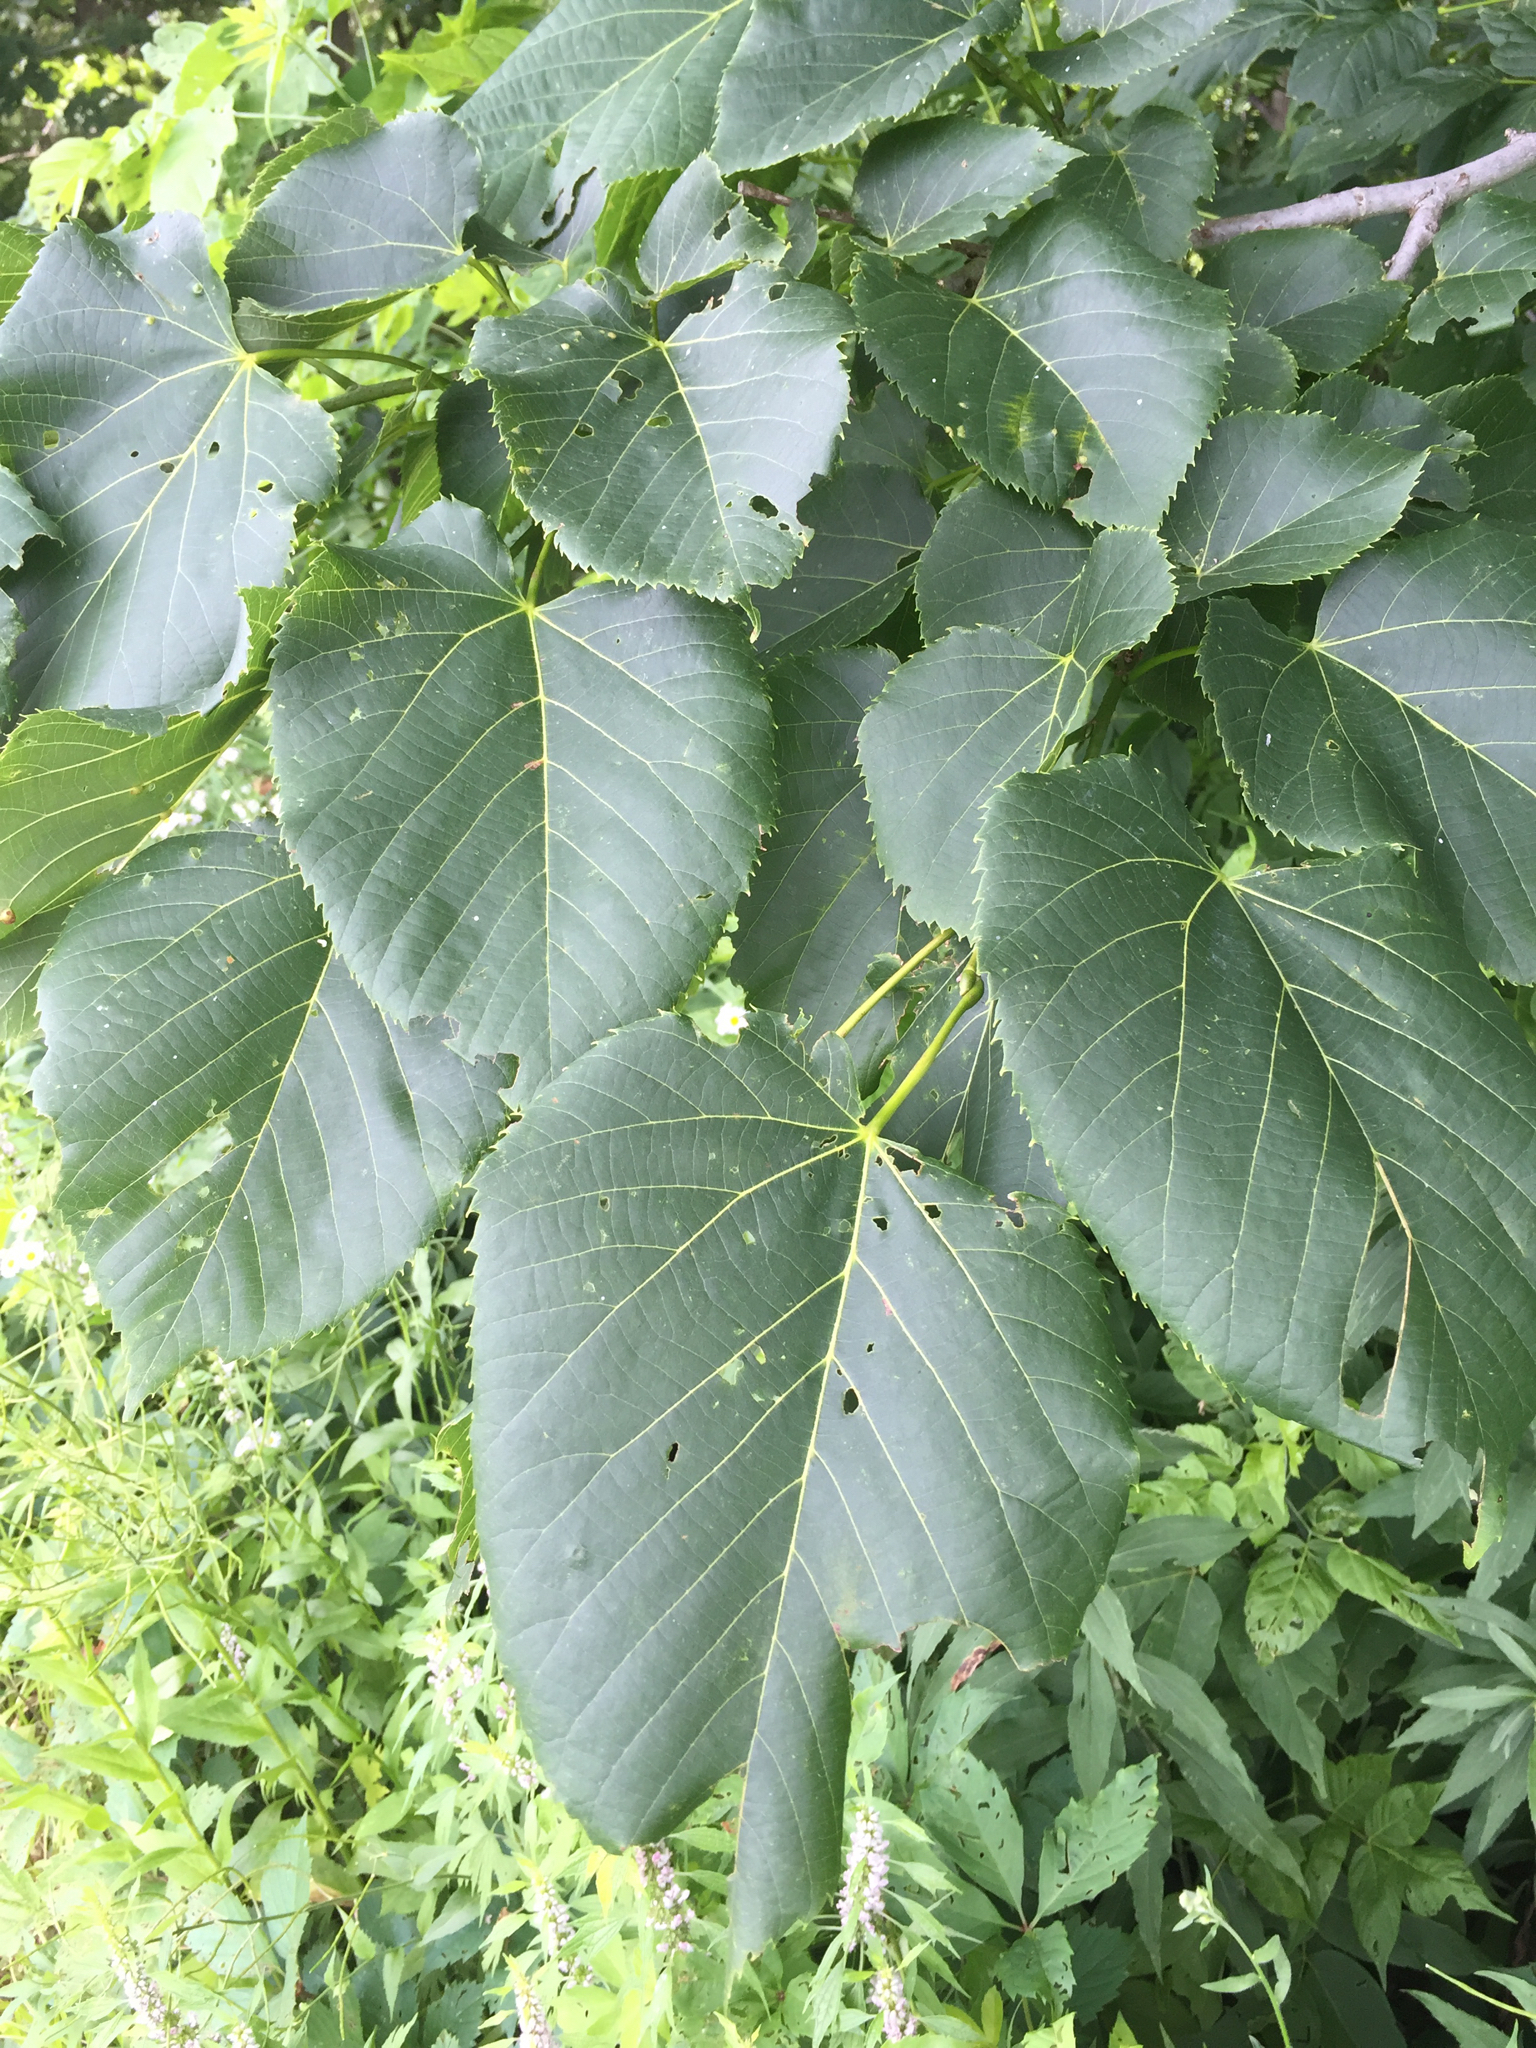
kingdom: Plantae
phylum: Tracheophyta
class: Magnoliopsida
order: Malvales
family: Malvaceae
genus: Tilia
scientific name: Tilia americana
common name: Basswood
